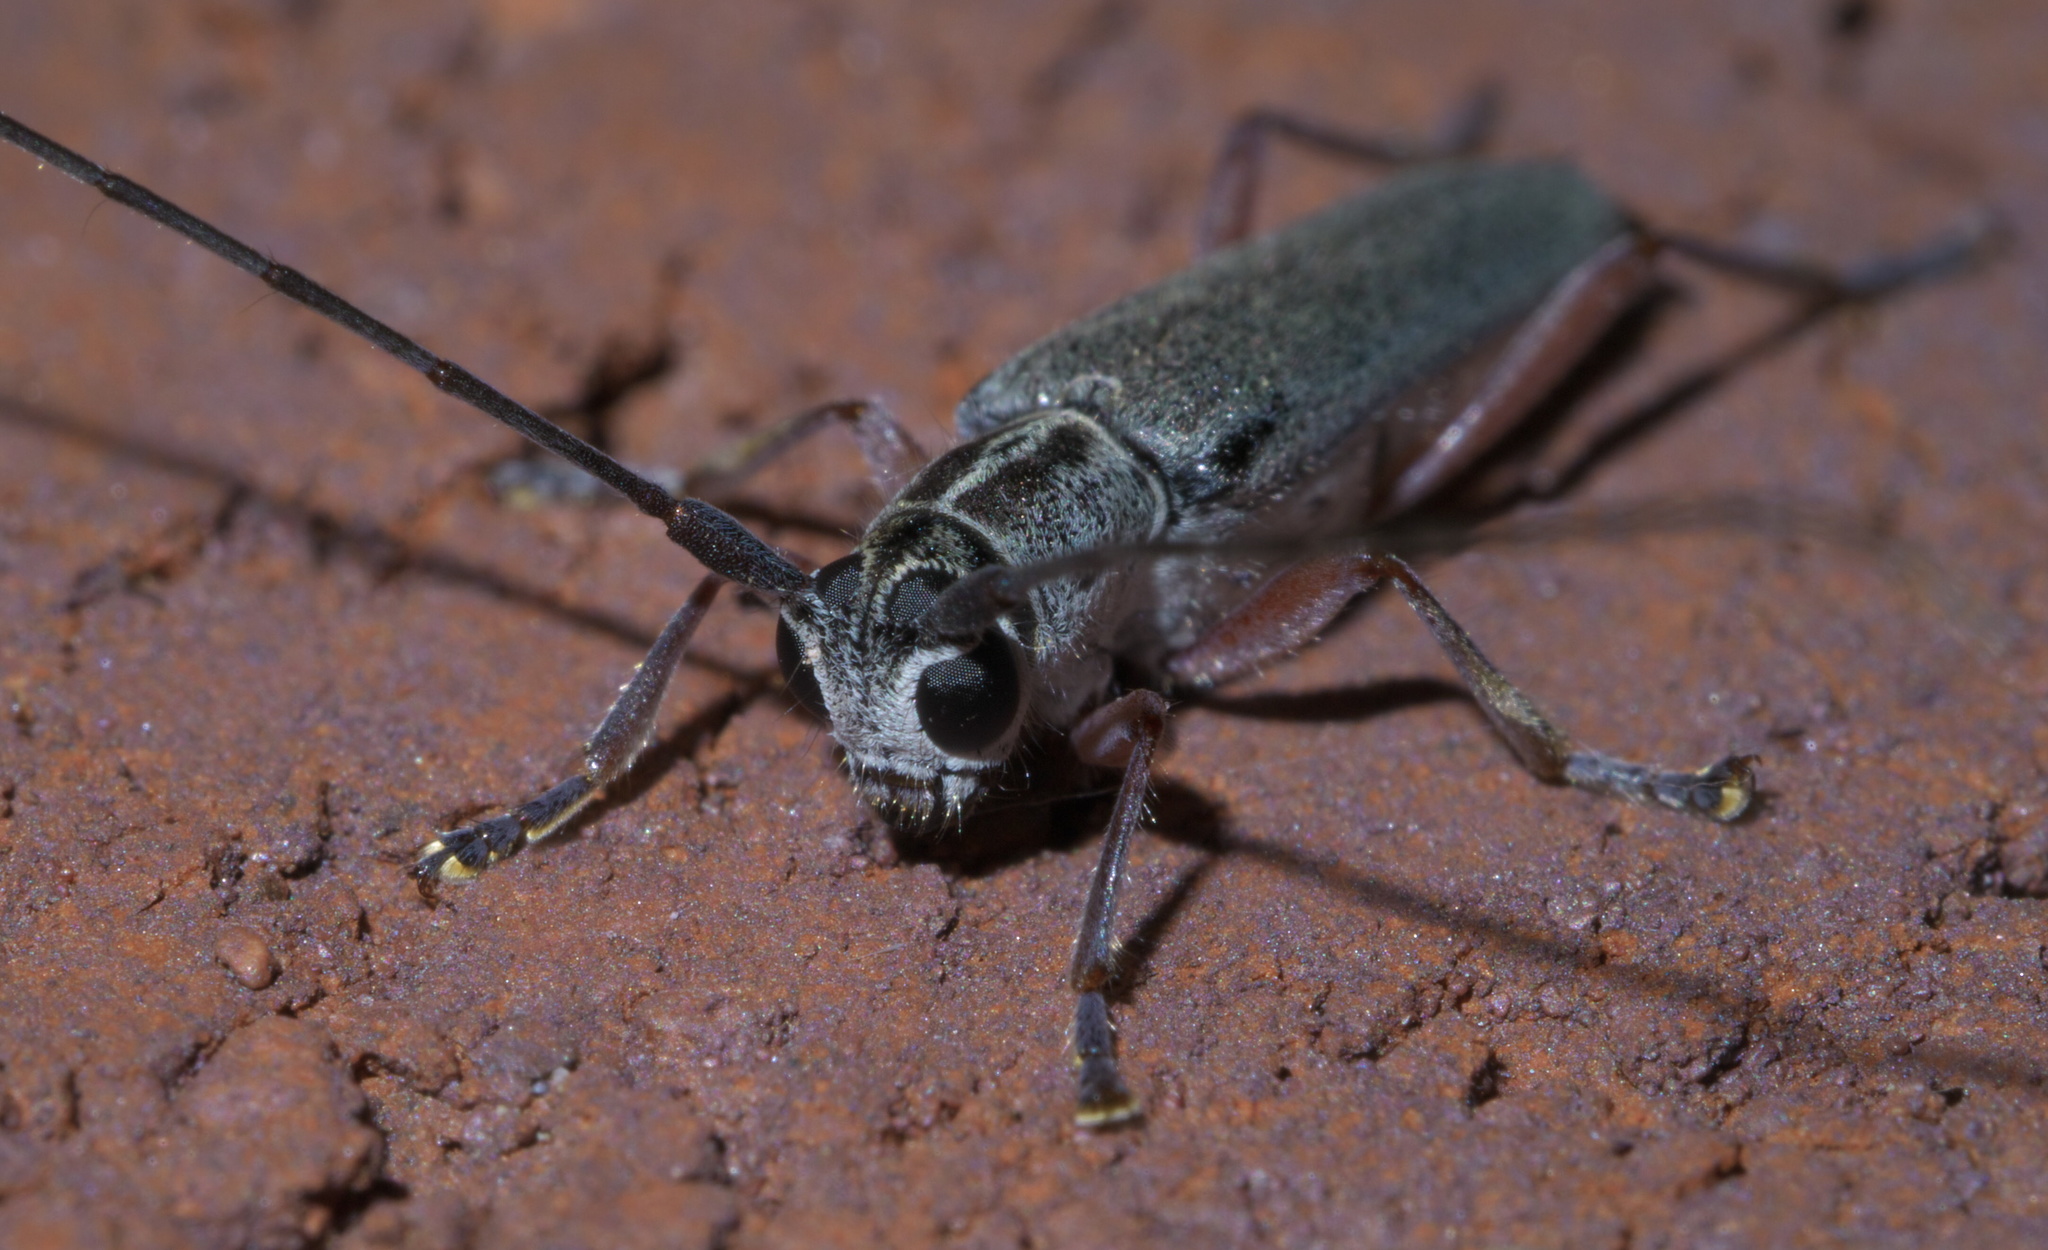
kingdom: Animalia
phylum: Arthropoda
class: Insecta
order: Coleoptera
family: Cerambycidae
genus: Saperda
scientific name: Saperda discoidea
